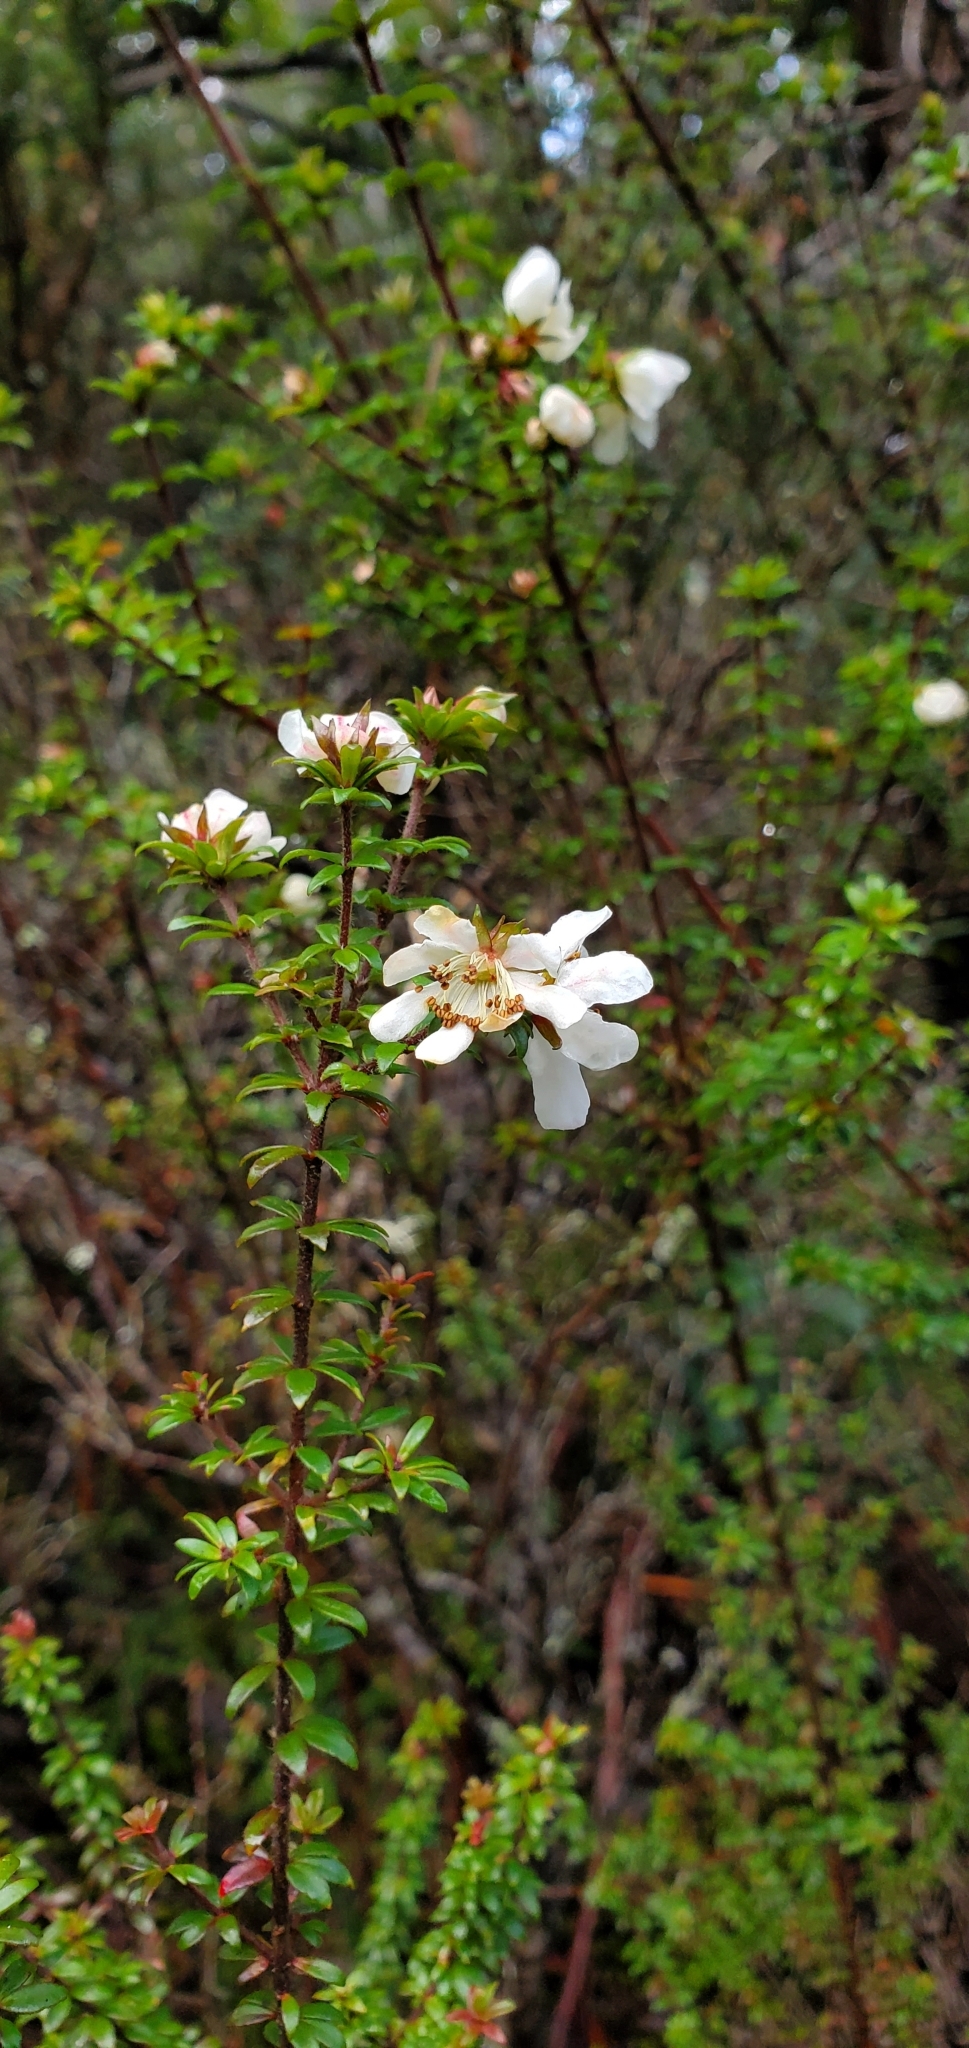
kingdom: Plantae
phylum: Tracheophyta
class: Magnoliopsida
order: Oxalidales
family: Cunoniaceae
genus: Bauera
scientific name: Bauera rubioides
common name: River-rose
